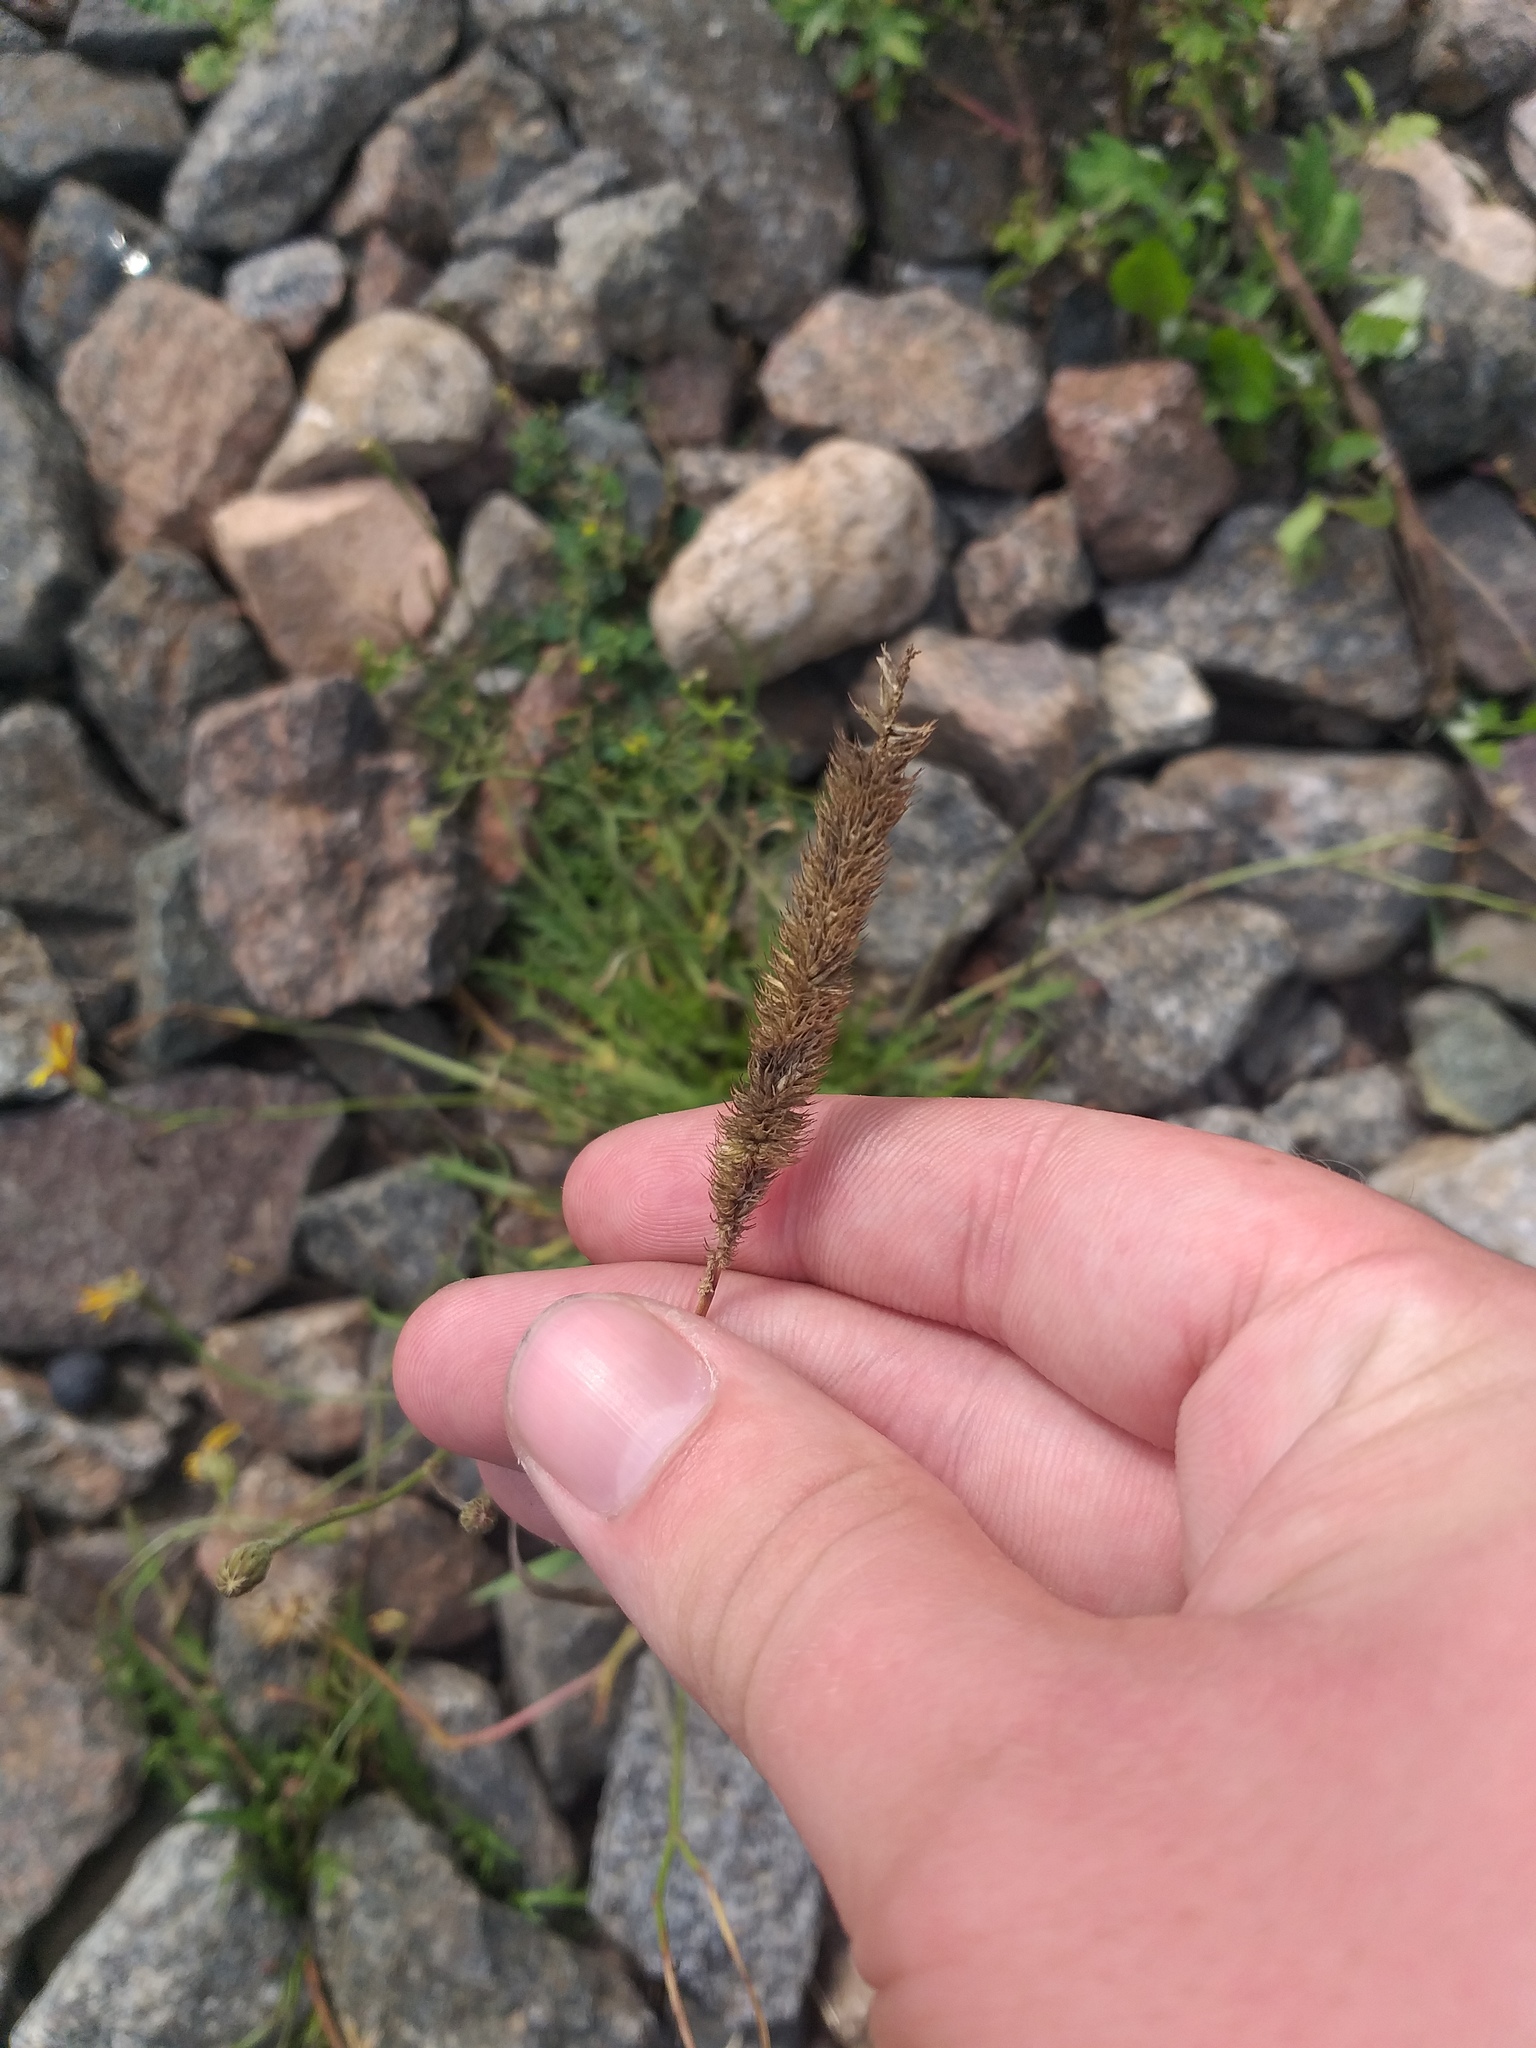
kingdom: Plantae
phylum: Tracheophyta
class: Liliopsida
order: Poales
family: Poaceae
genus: Phleum
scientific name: Phleum pratense
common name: Timothy grass
